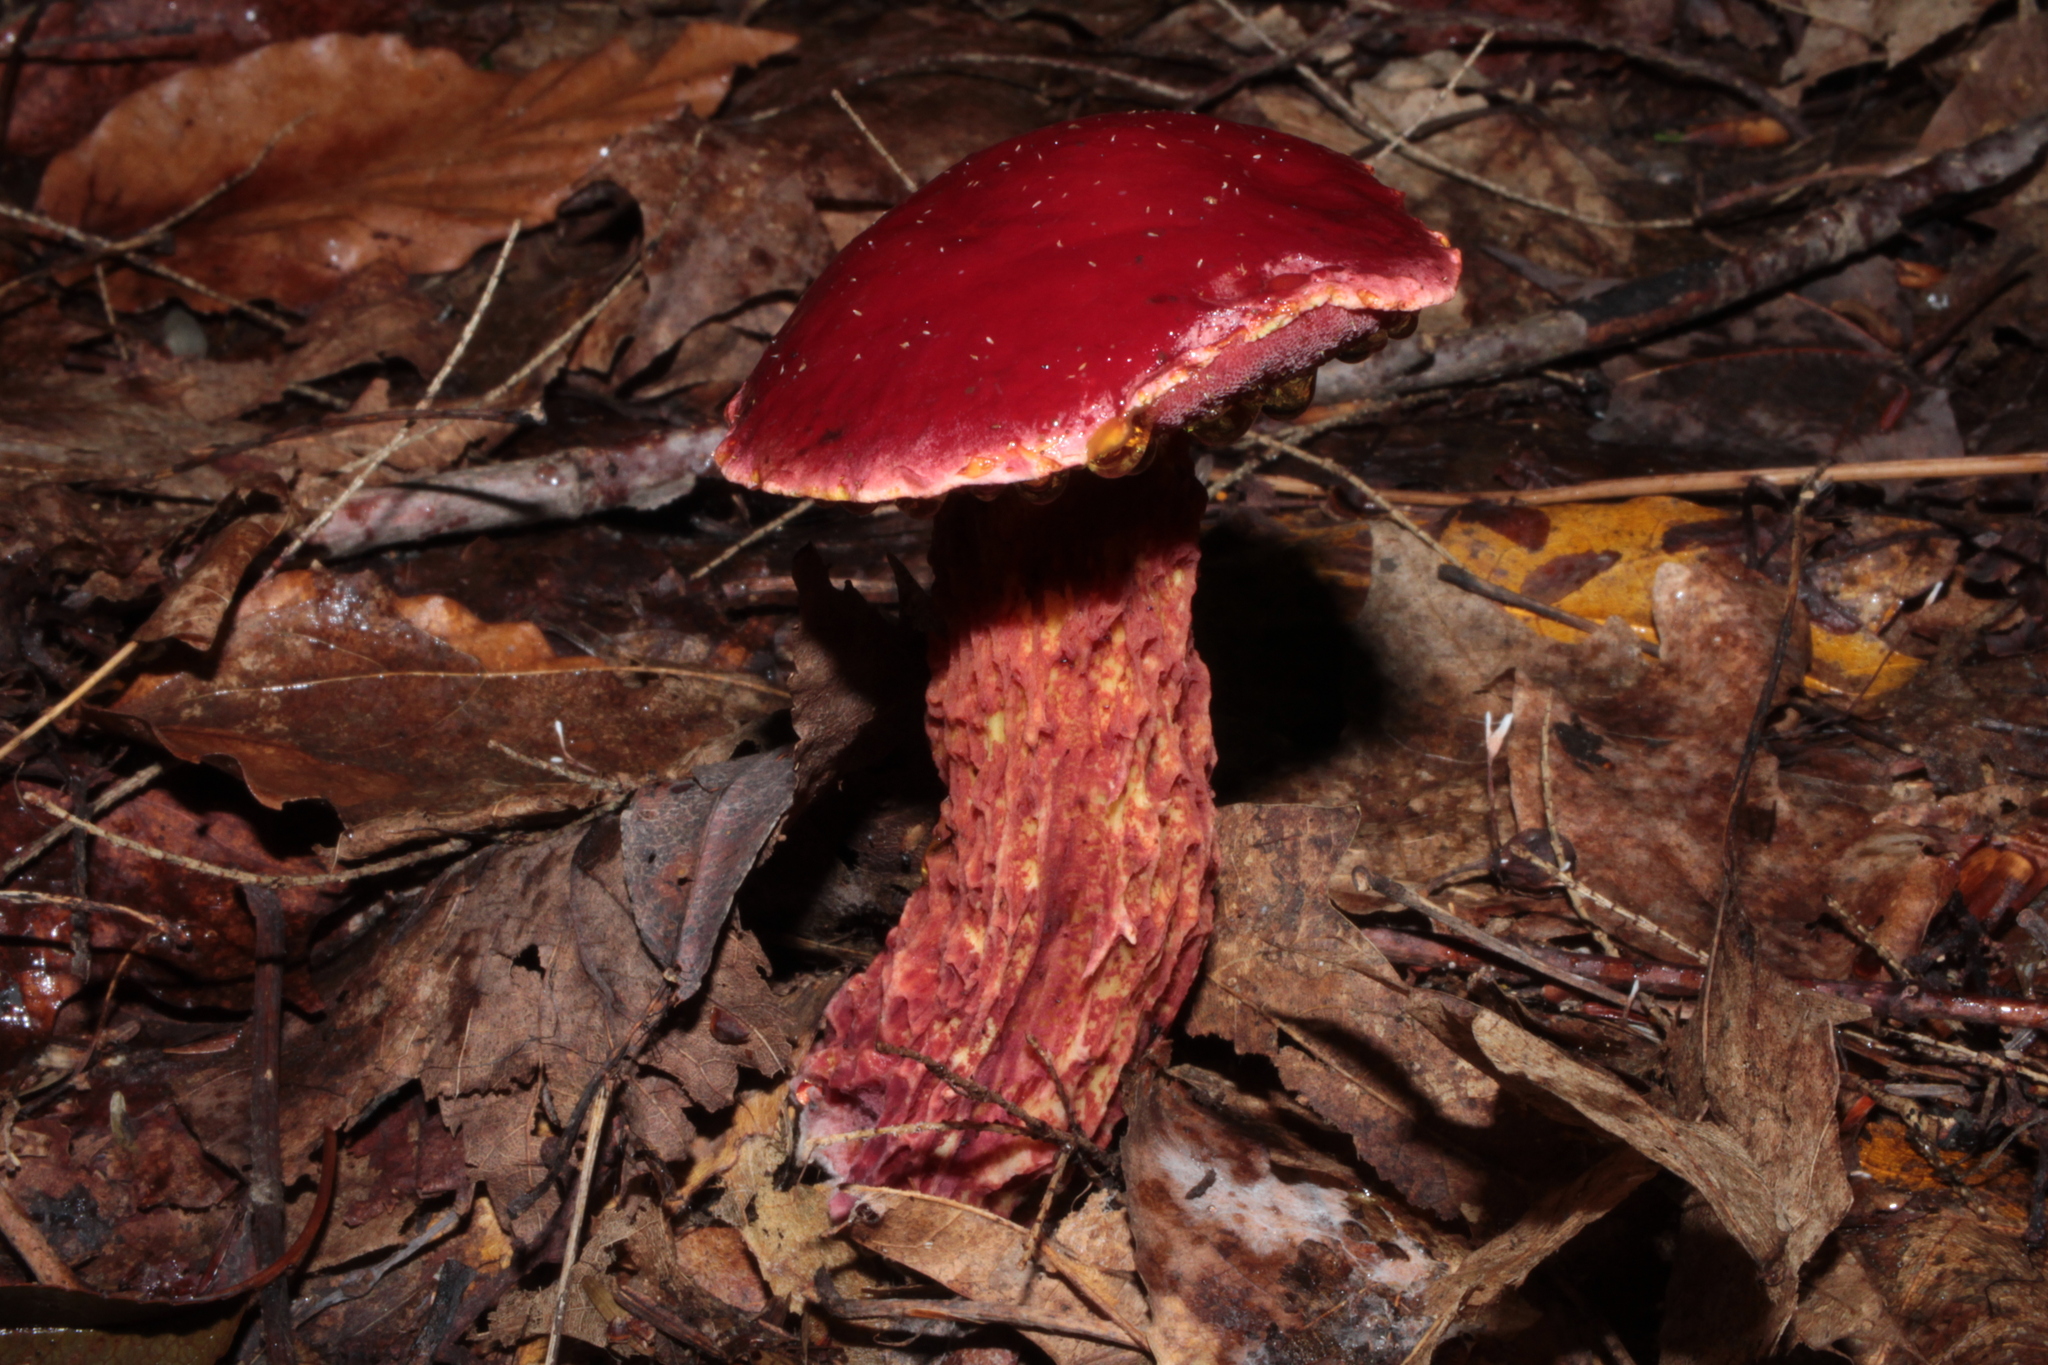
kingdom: Fungi
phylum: Basidiomycota
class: Agaricomycetes
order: Boletales
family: Boletaceae
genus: Butyriboletus
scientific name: Butyriboletus frostii
